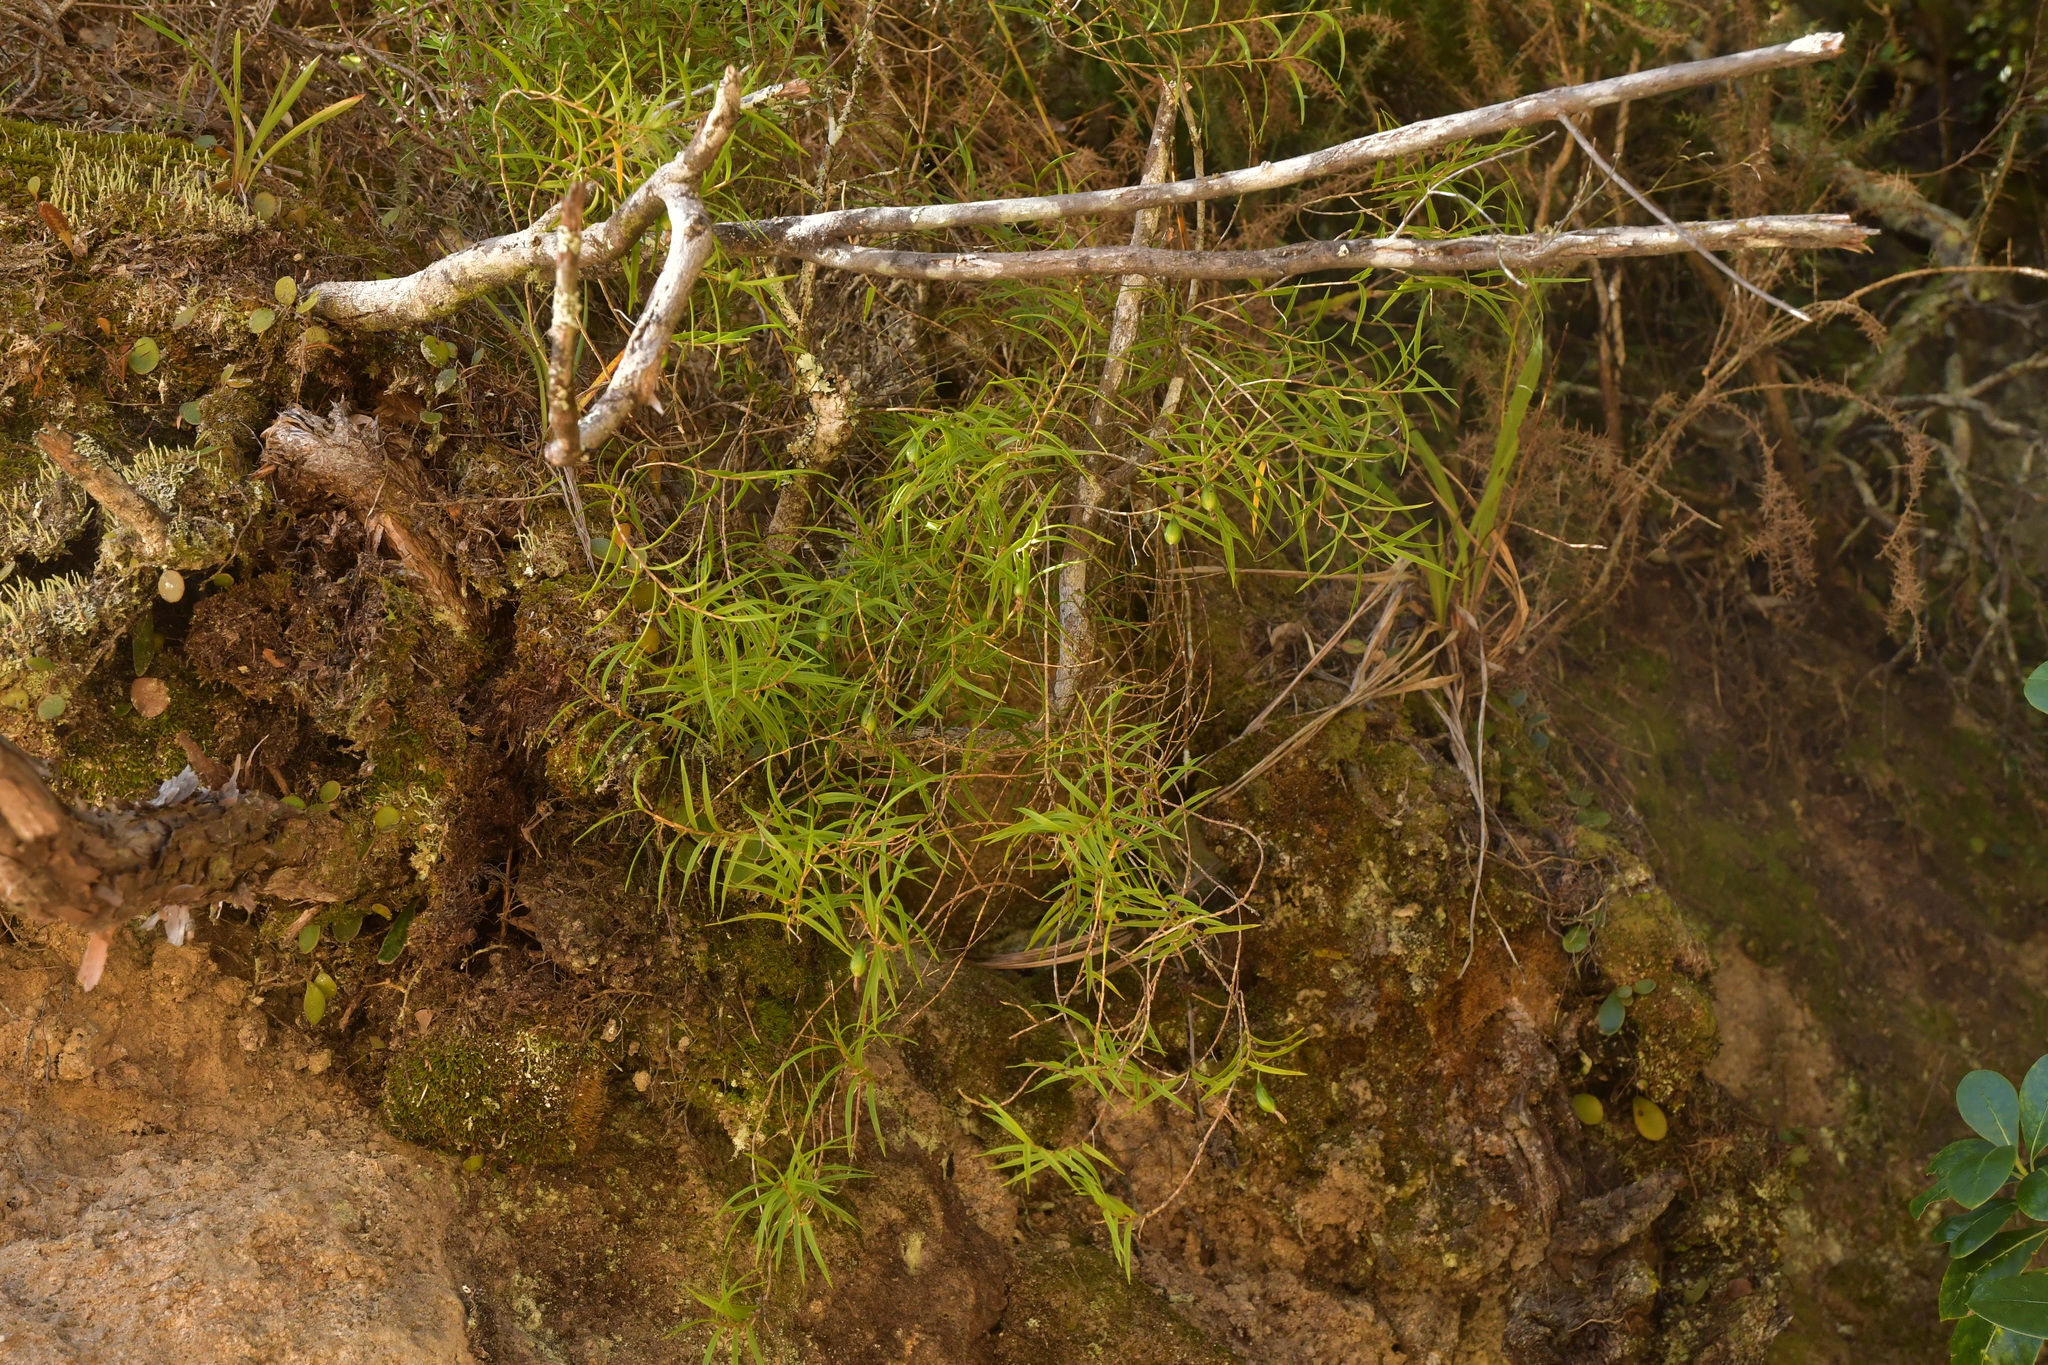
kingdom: Plantae
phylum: Tracheophyta
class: Liliopsida
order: Asparagales
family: Orchidaceae
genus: Dendrobium
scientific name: Dendrobium cunninghamii
